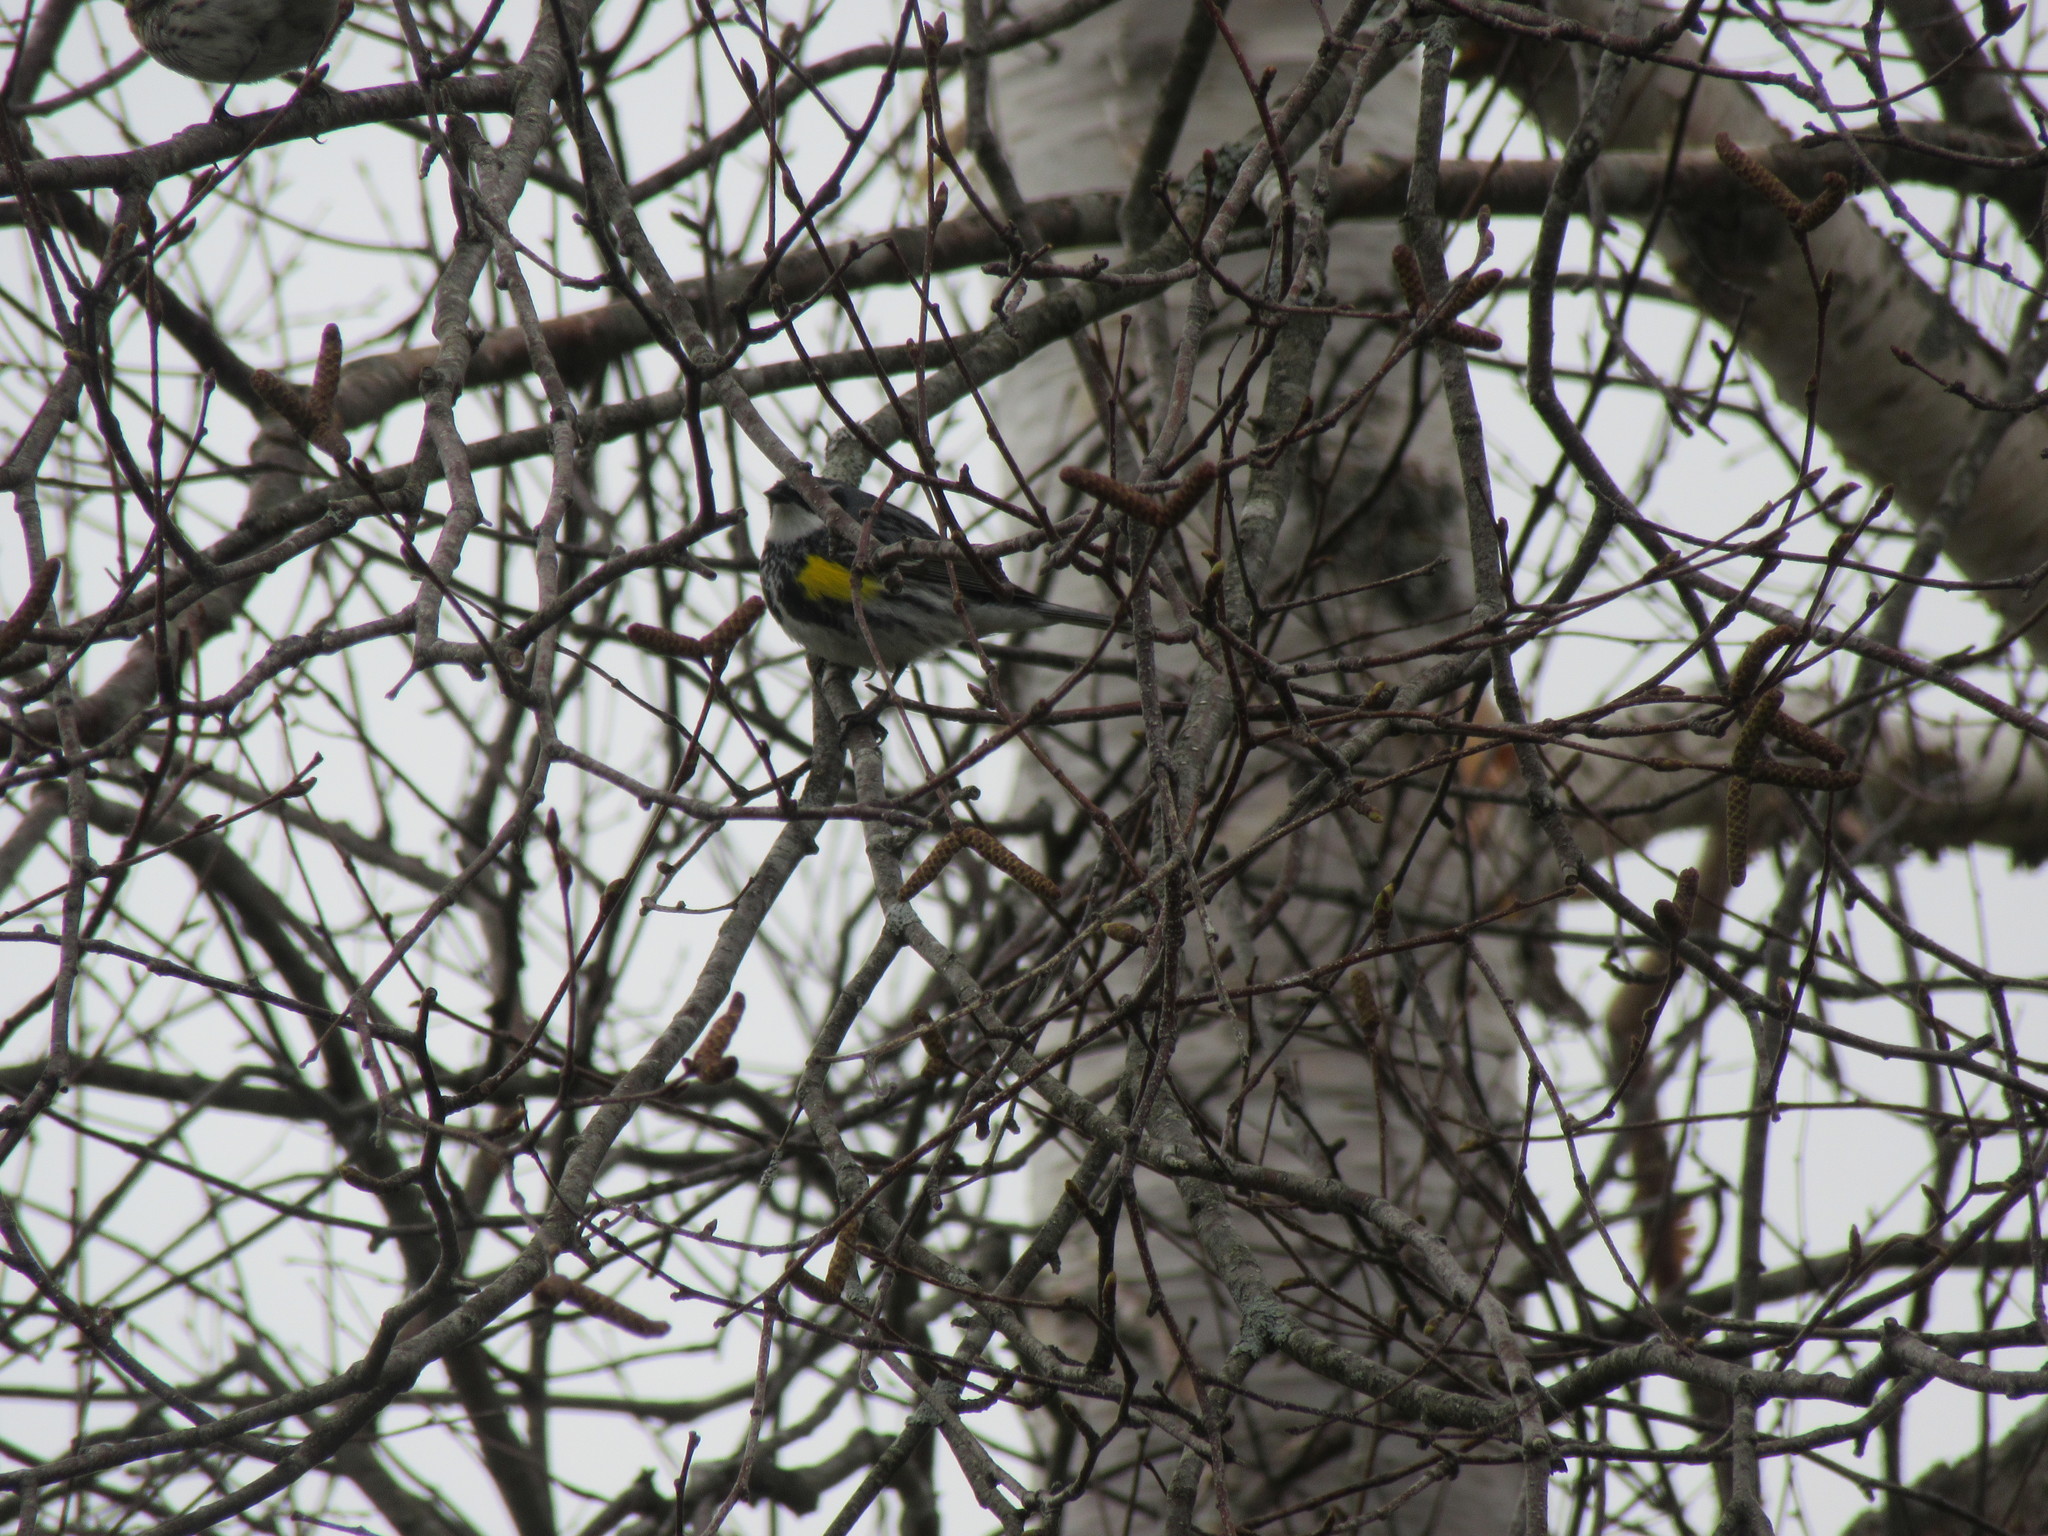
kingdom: Animalia
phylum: Chordata
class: Aves
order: Passeriformes
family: Parulidae
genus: Setophaga
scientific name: Setophaga coronata
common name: Myrtle warbler
